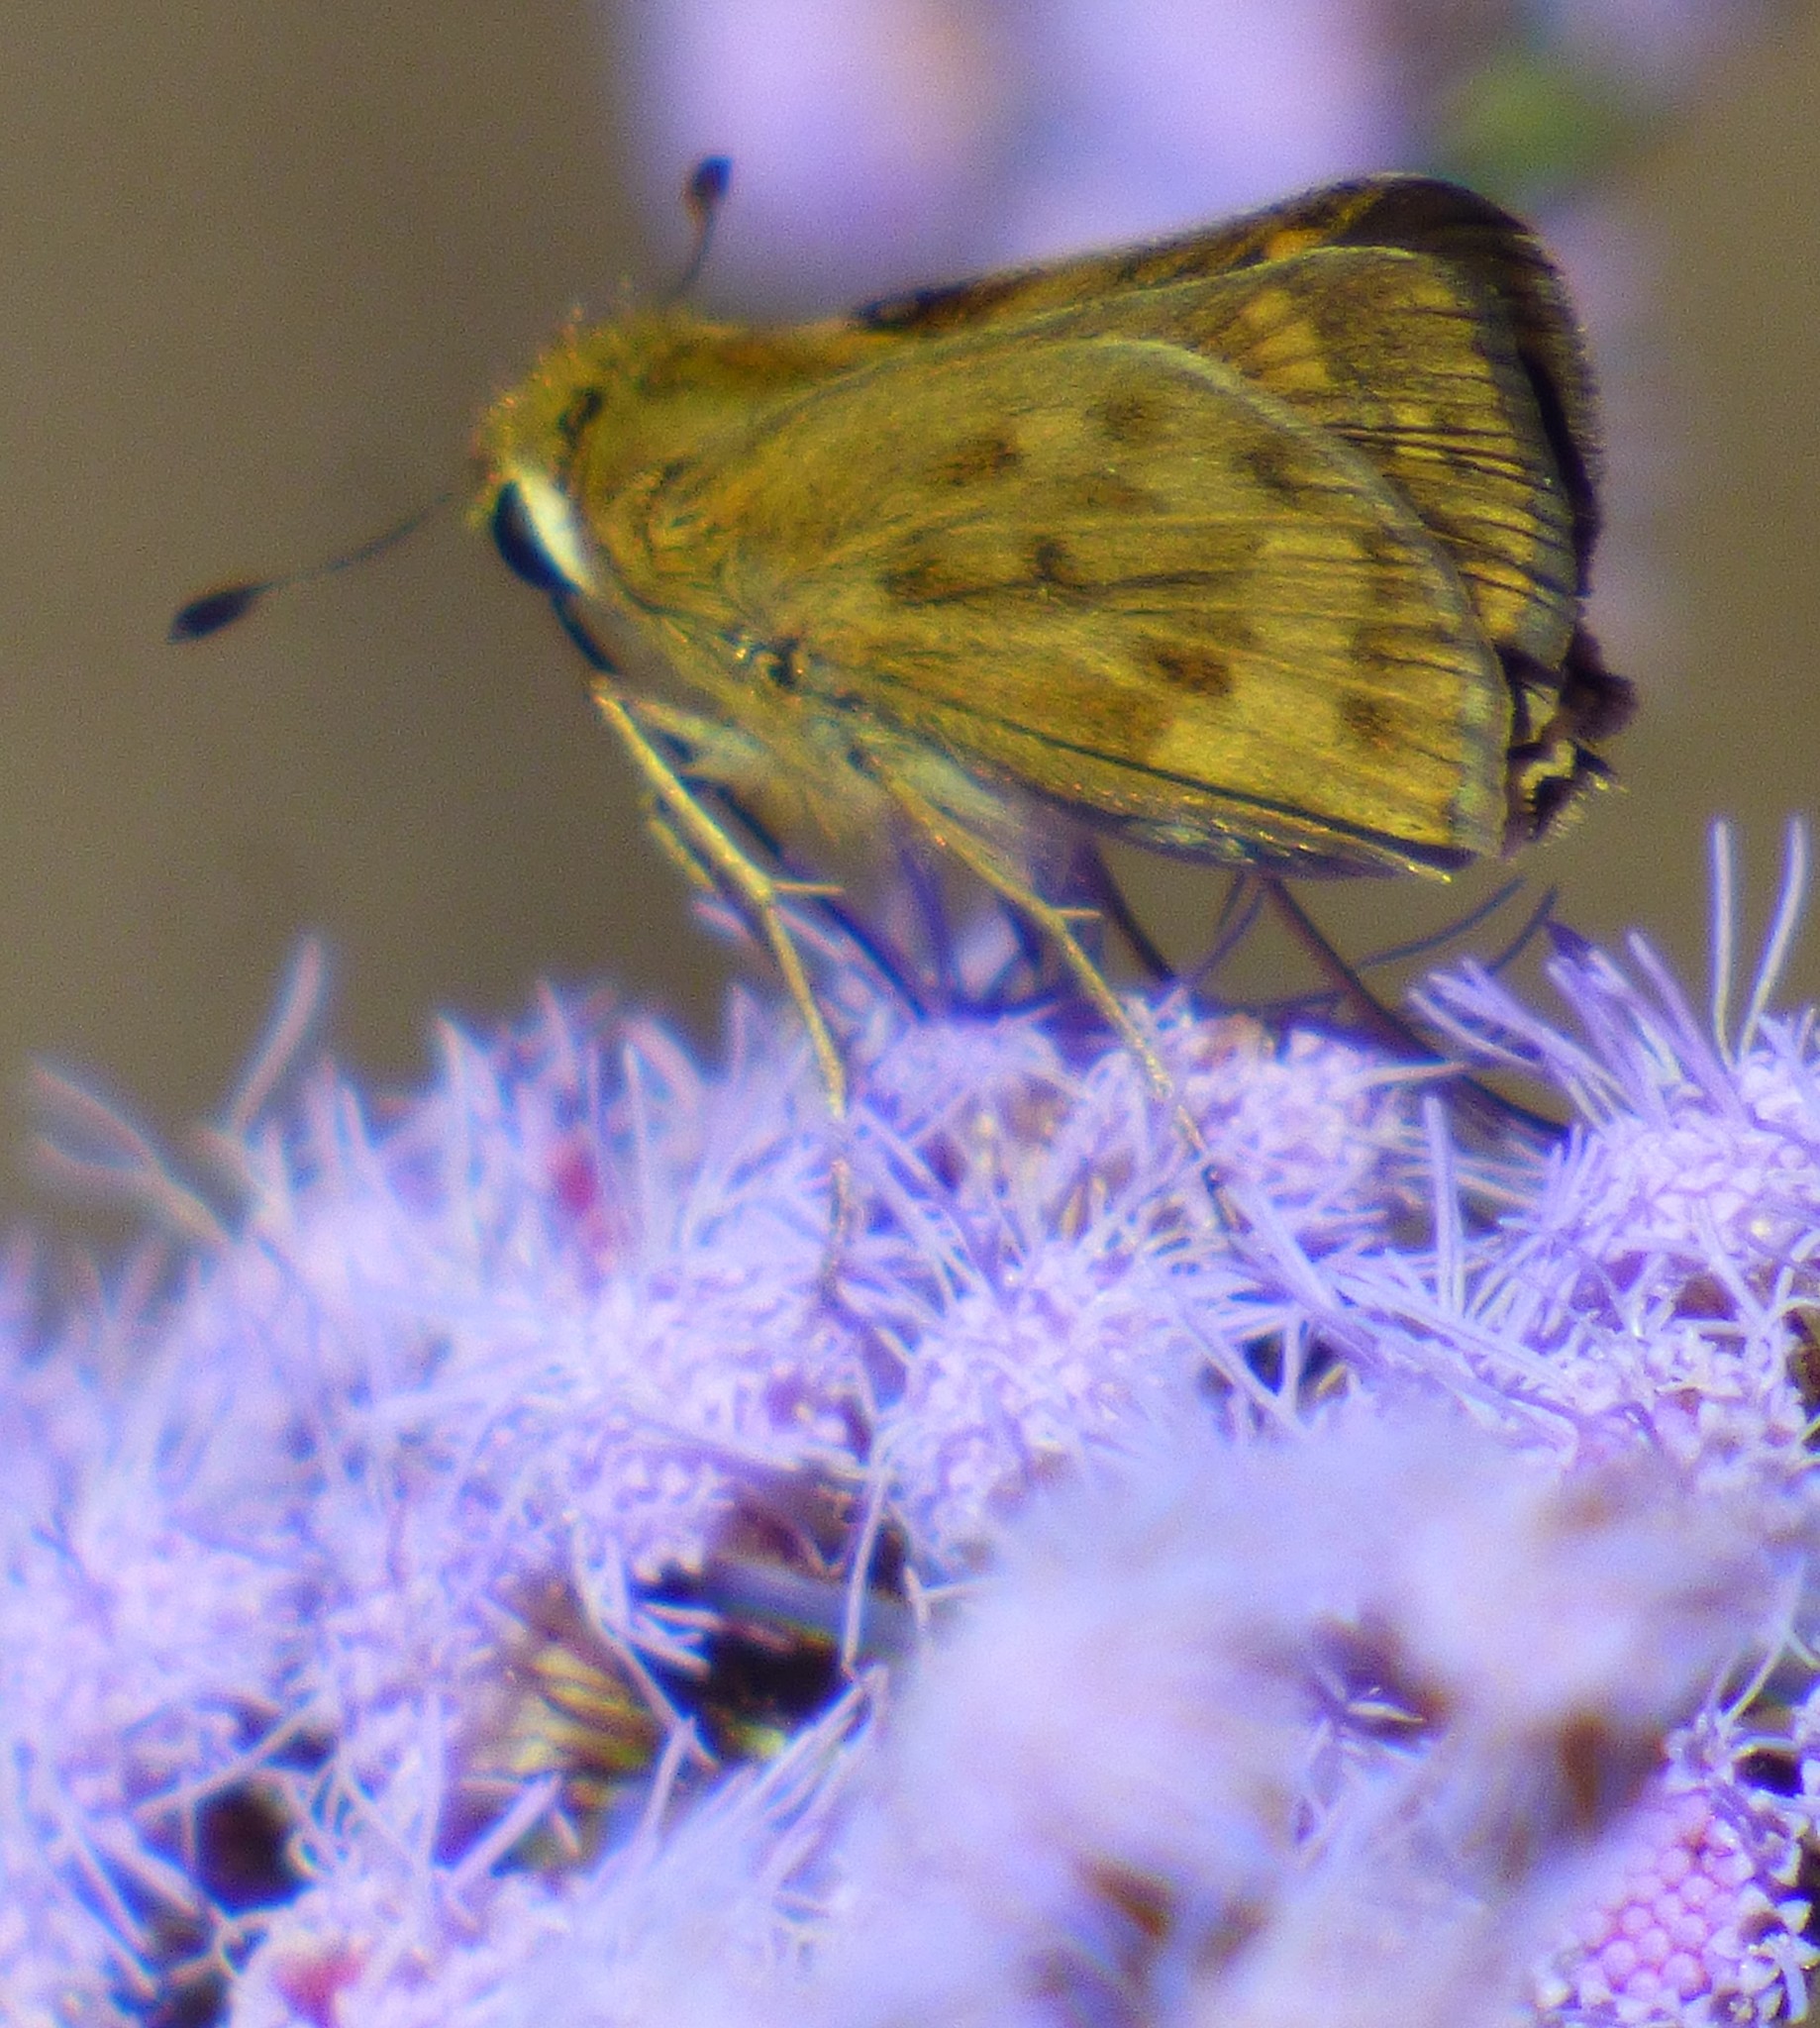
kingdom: Animalia
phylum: Arthropoda
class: Insecta
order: Lepidoptera
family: Hesperiidae
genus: Polites
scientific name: Polites vibex
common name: Whirlabout
